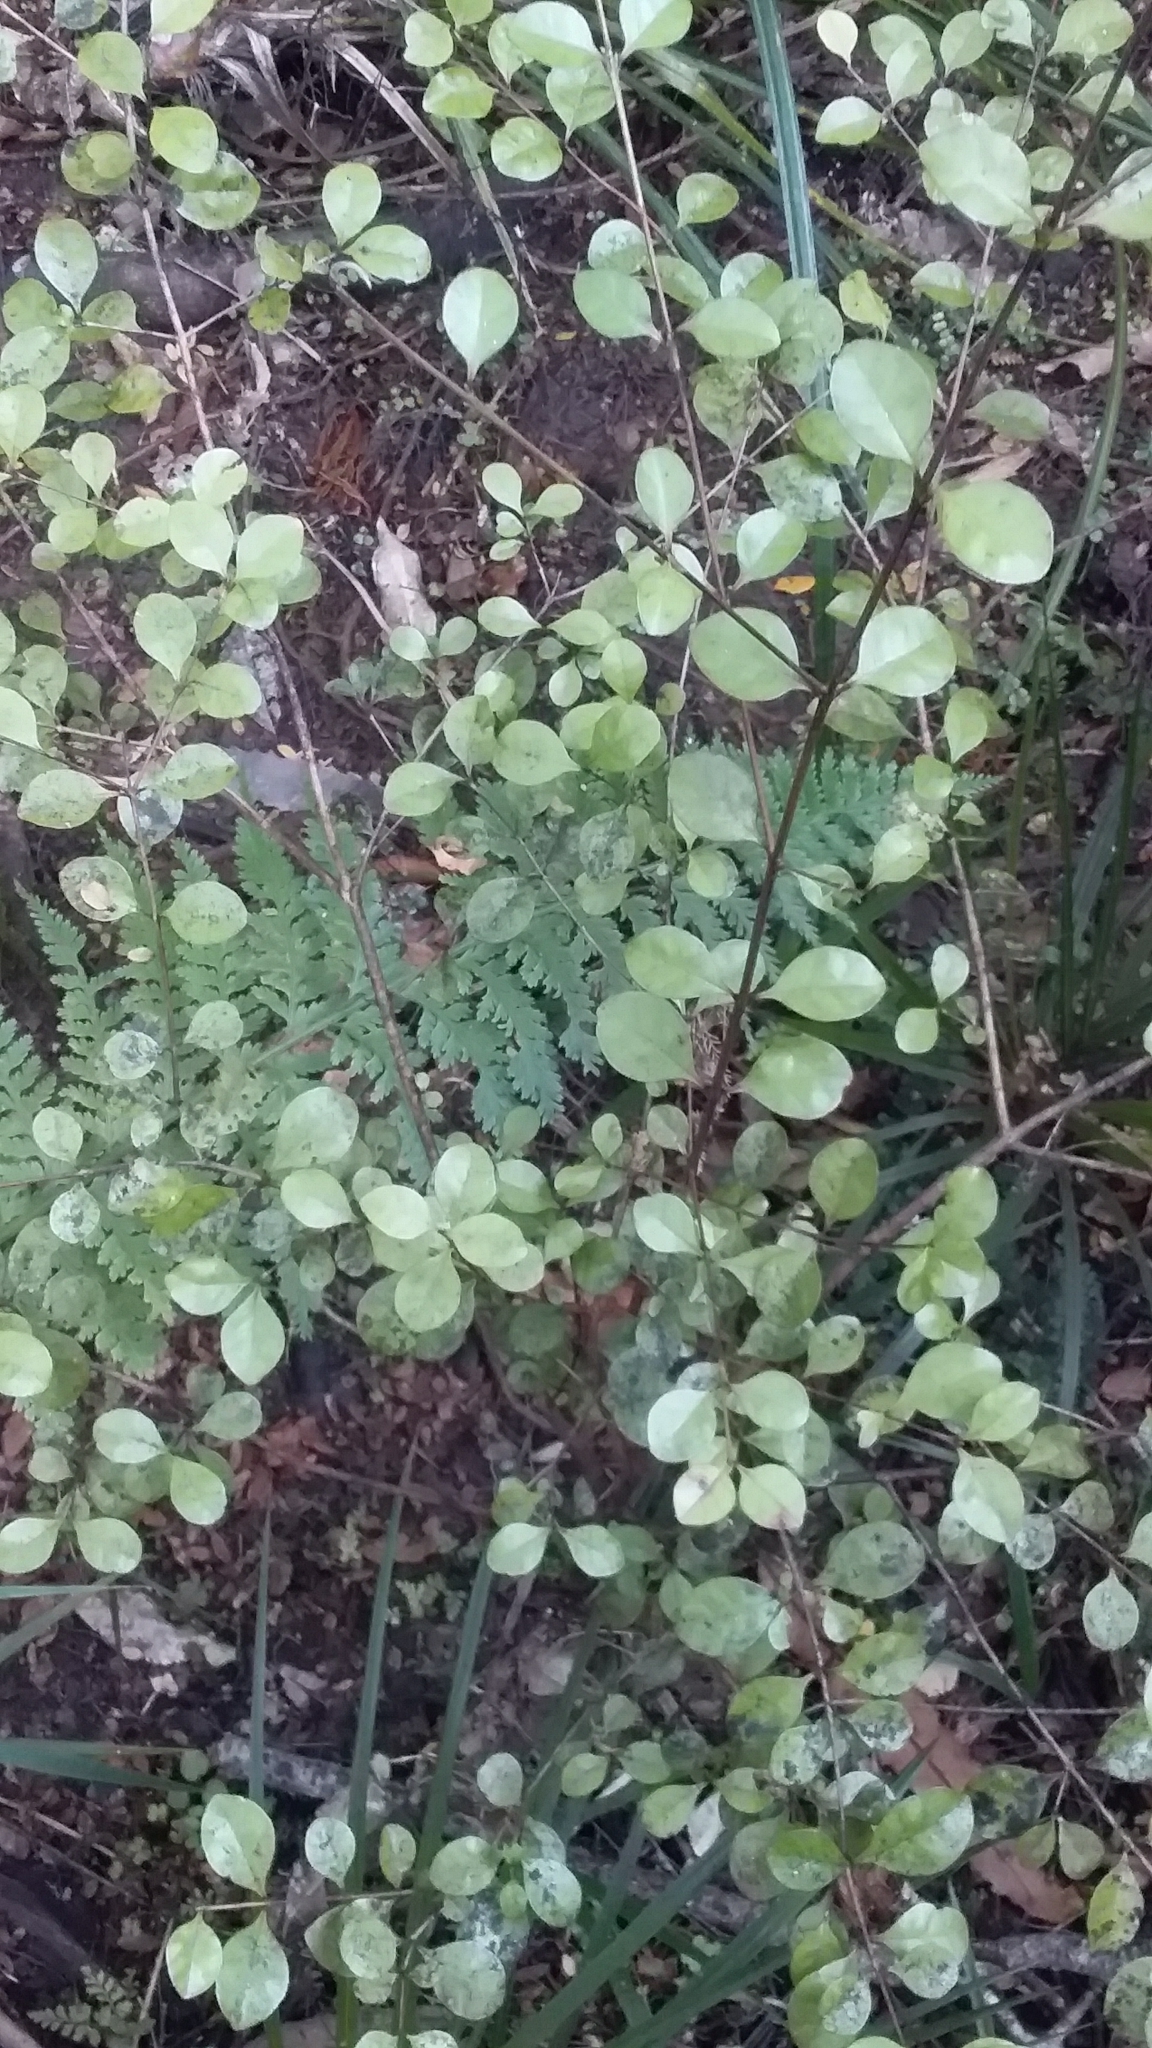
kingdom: Fungi
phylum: Basidiomycota
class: Pucciniomycetes
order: Pucciniales
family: Sphaerophragmiaceae
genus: Austropuccinia
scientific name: Austropuccinia psidii
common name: Myrtle rust
